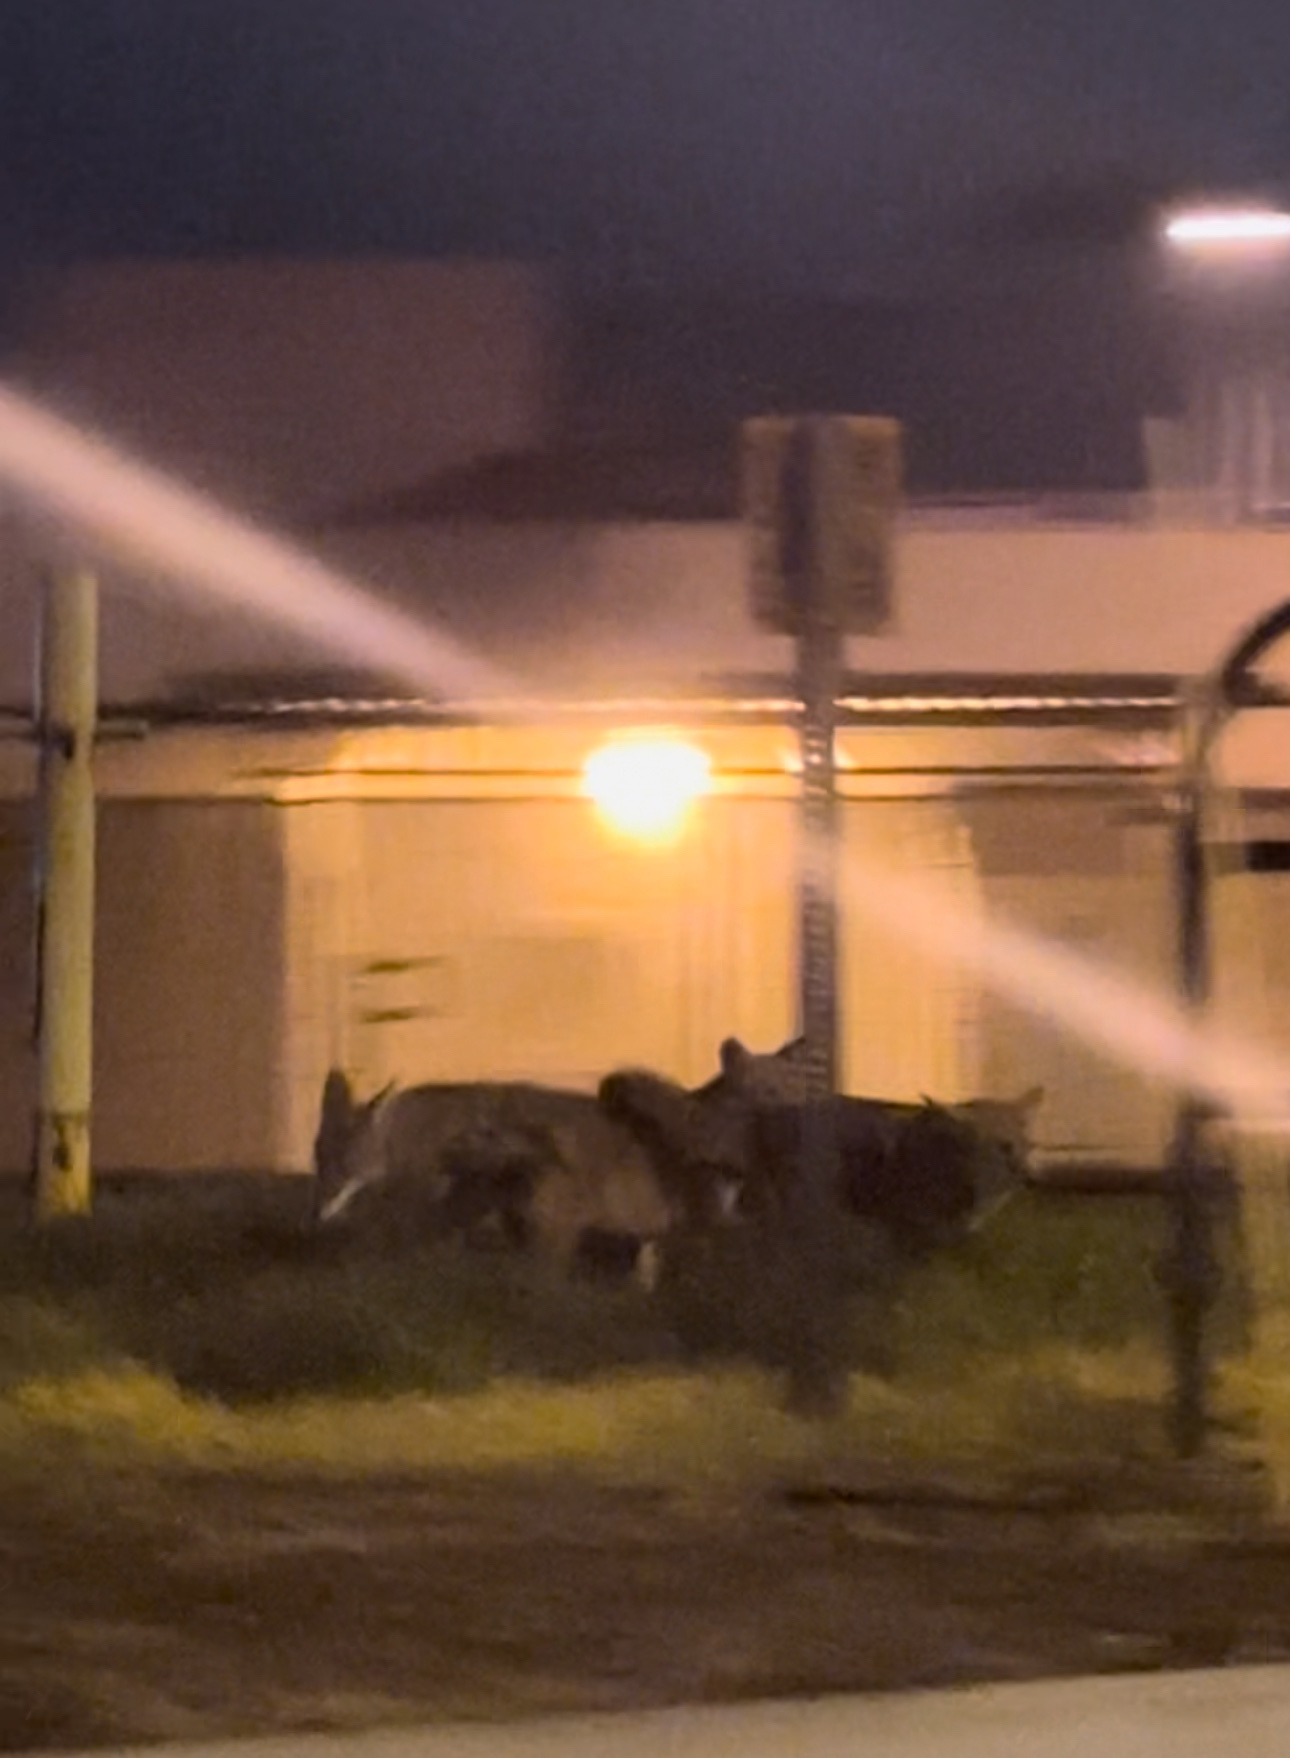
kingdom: Animalia
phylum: Chordata
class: Mammalia
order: Carnivora
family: Canidae
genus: Canis
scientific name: Canis latrans
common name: Coyote
